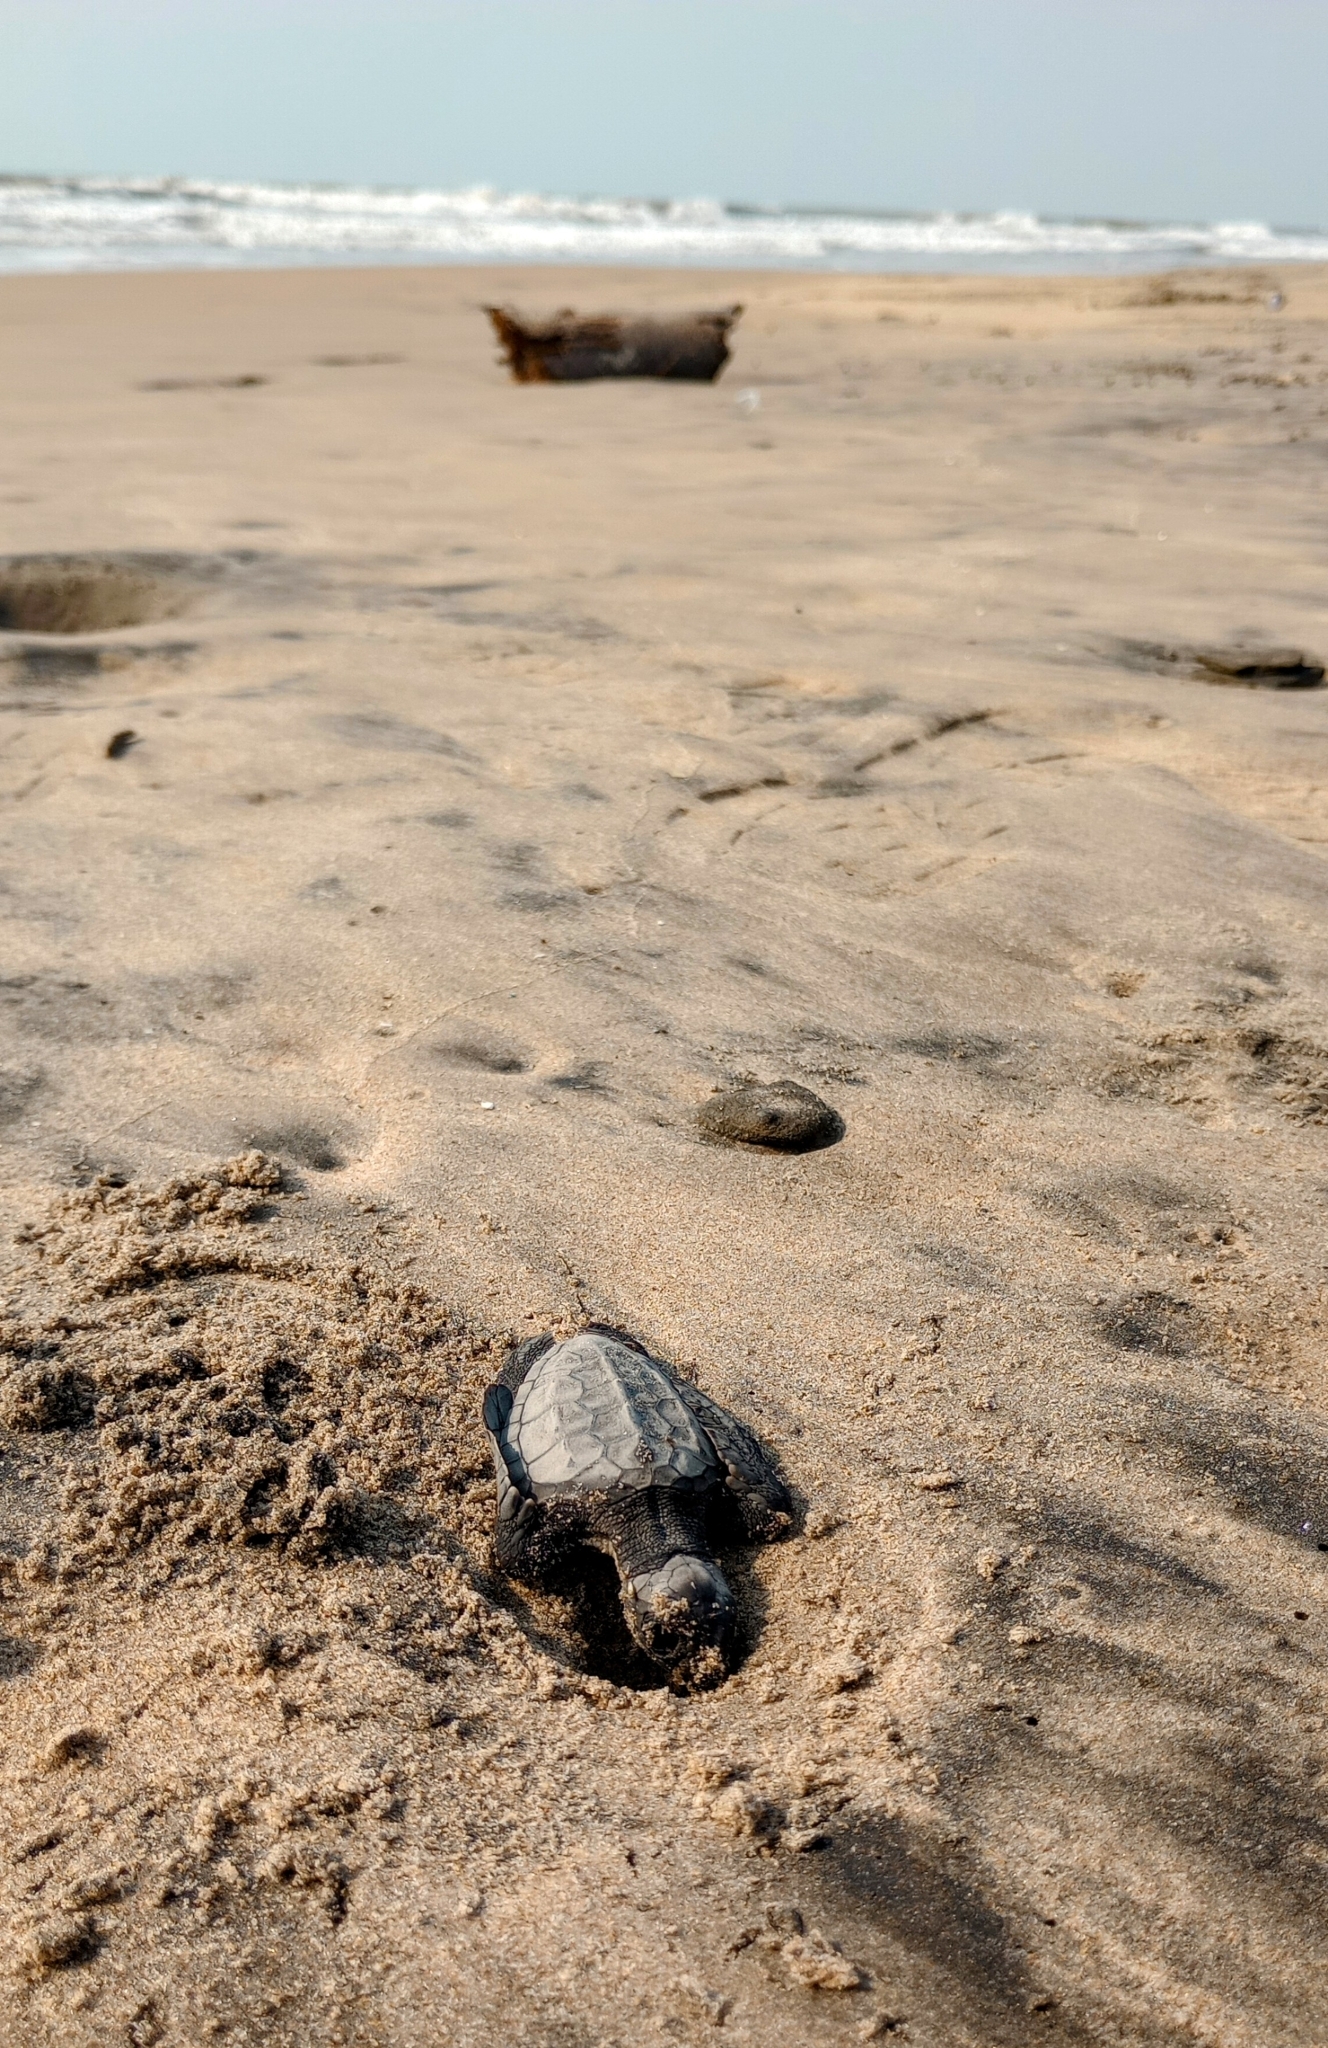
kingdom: Animalia
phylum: Chordata
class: Testudines
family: Cheloniidae
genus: Lepidochelys
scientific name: Lepidochelys olivacea
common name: Olive ridley
